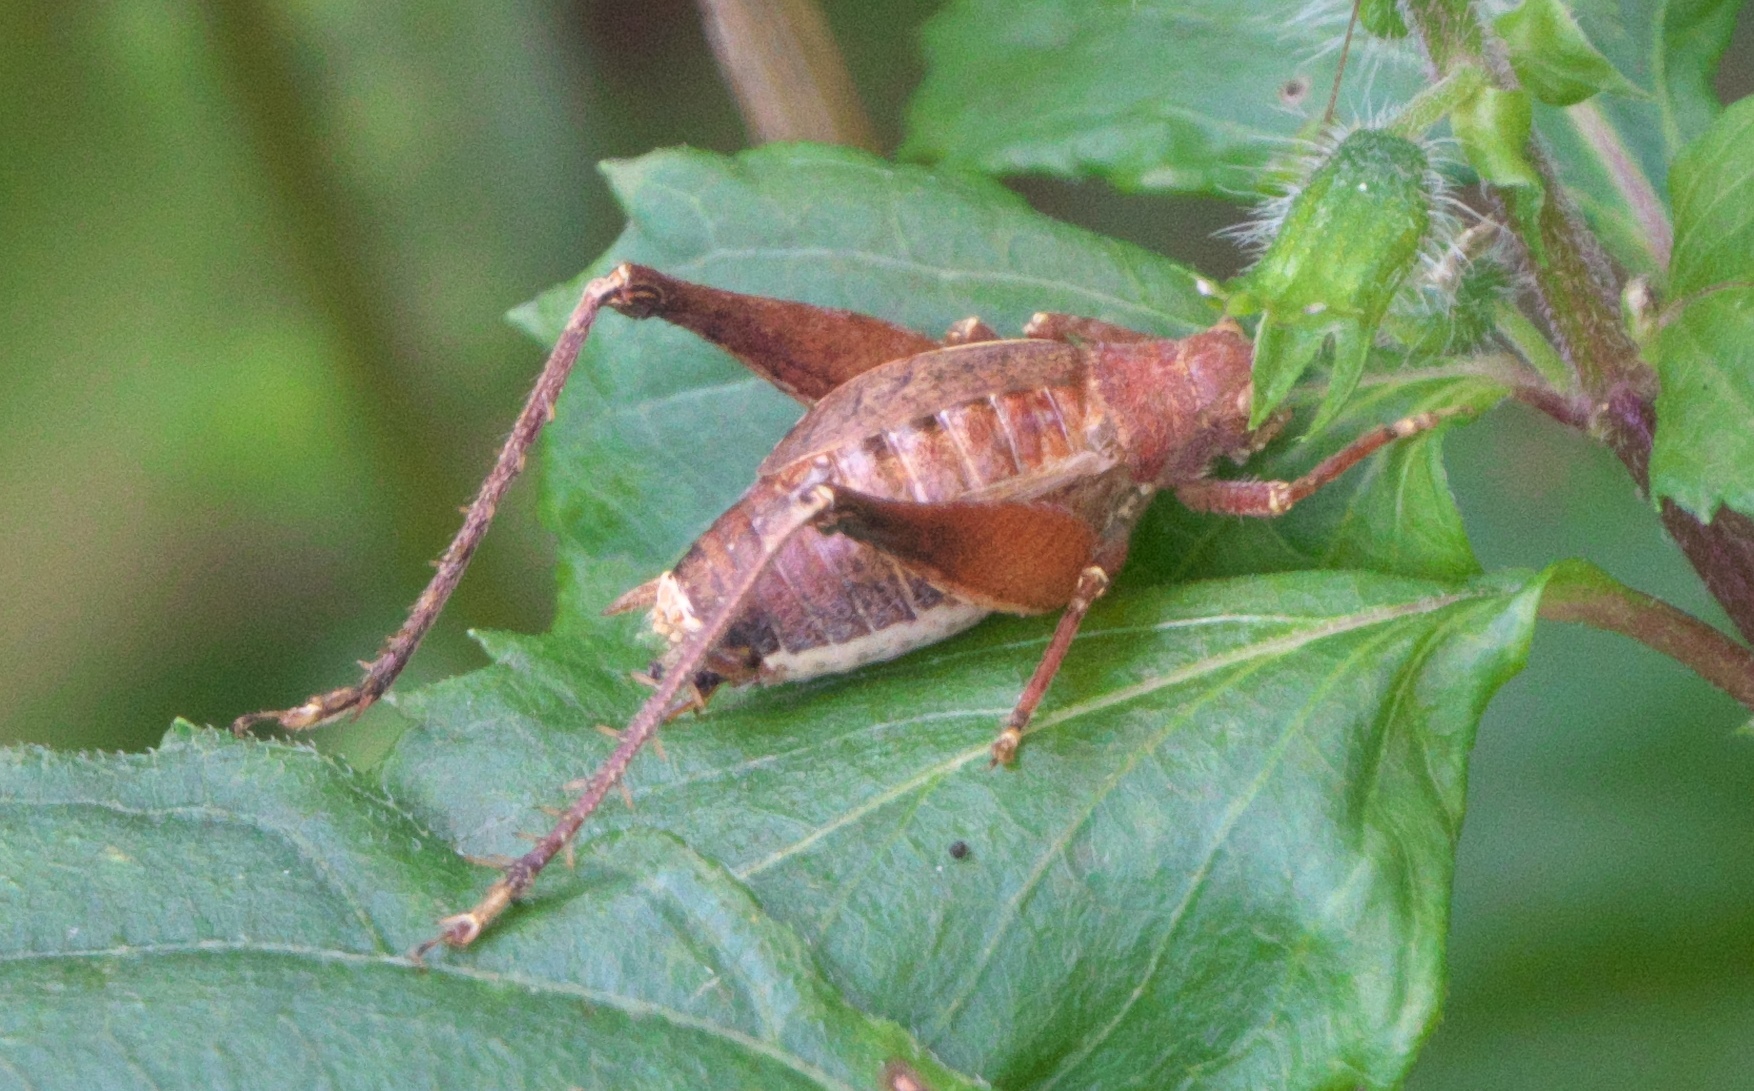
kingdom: Animalia
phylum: Arthropoda
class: Insecta
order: Orthoptera
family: Gryllidae
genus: Hapithus
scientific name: Hapithus agitator
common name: Restless bush cricket
